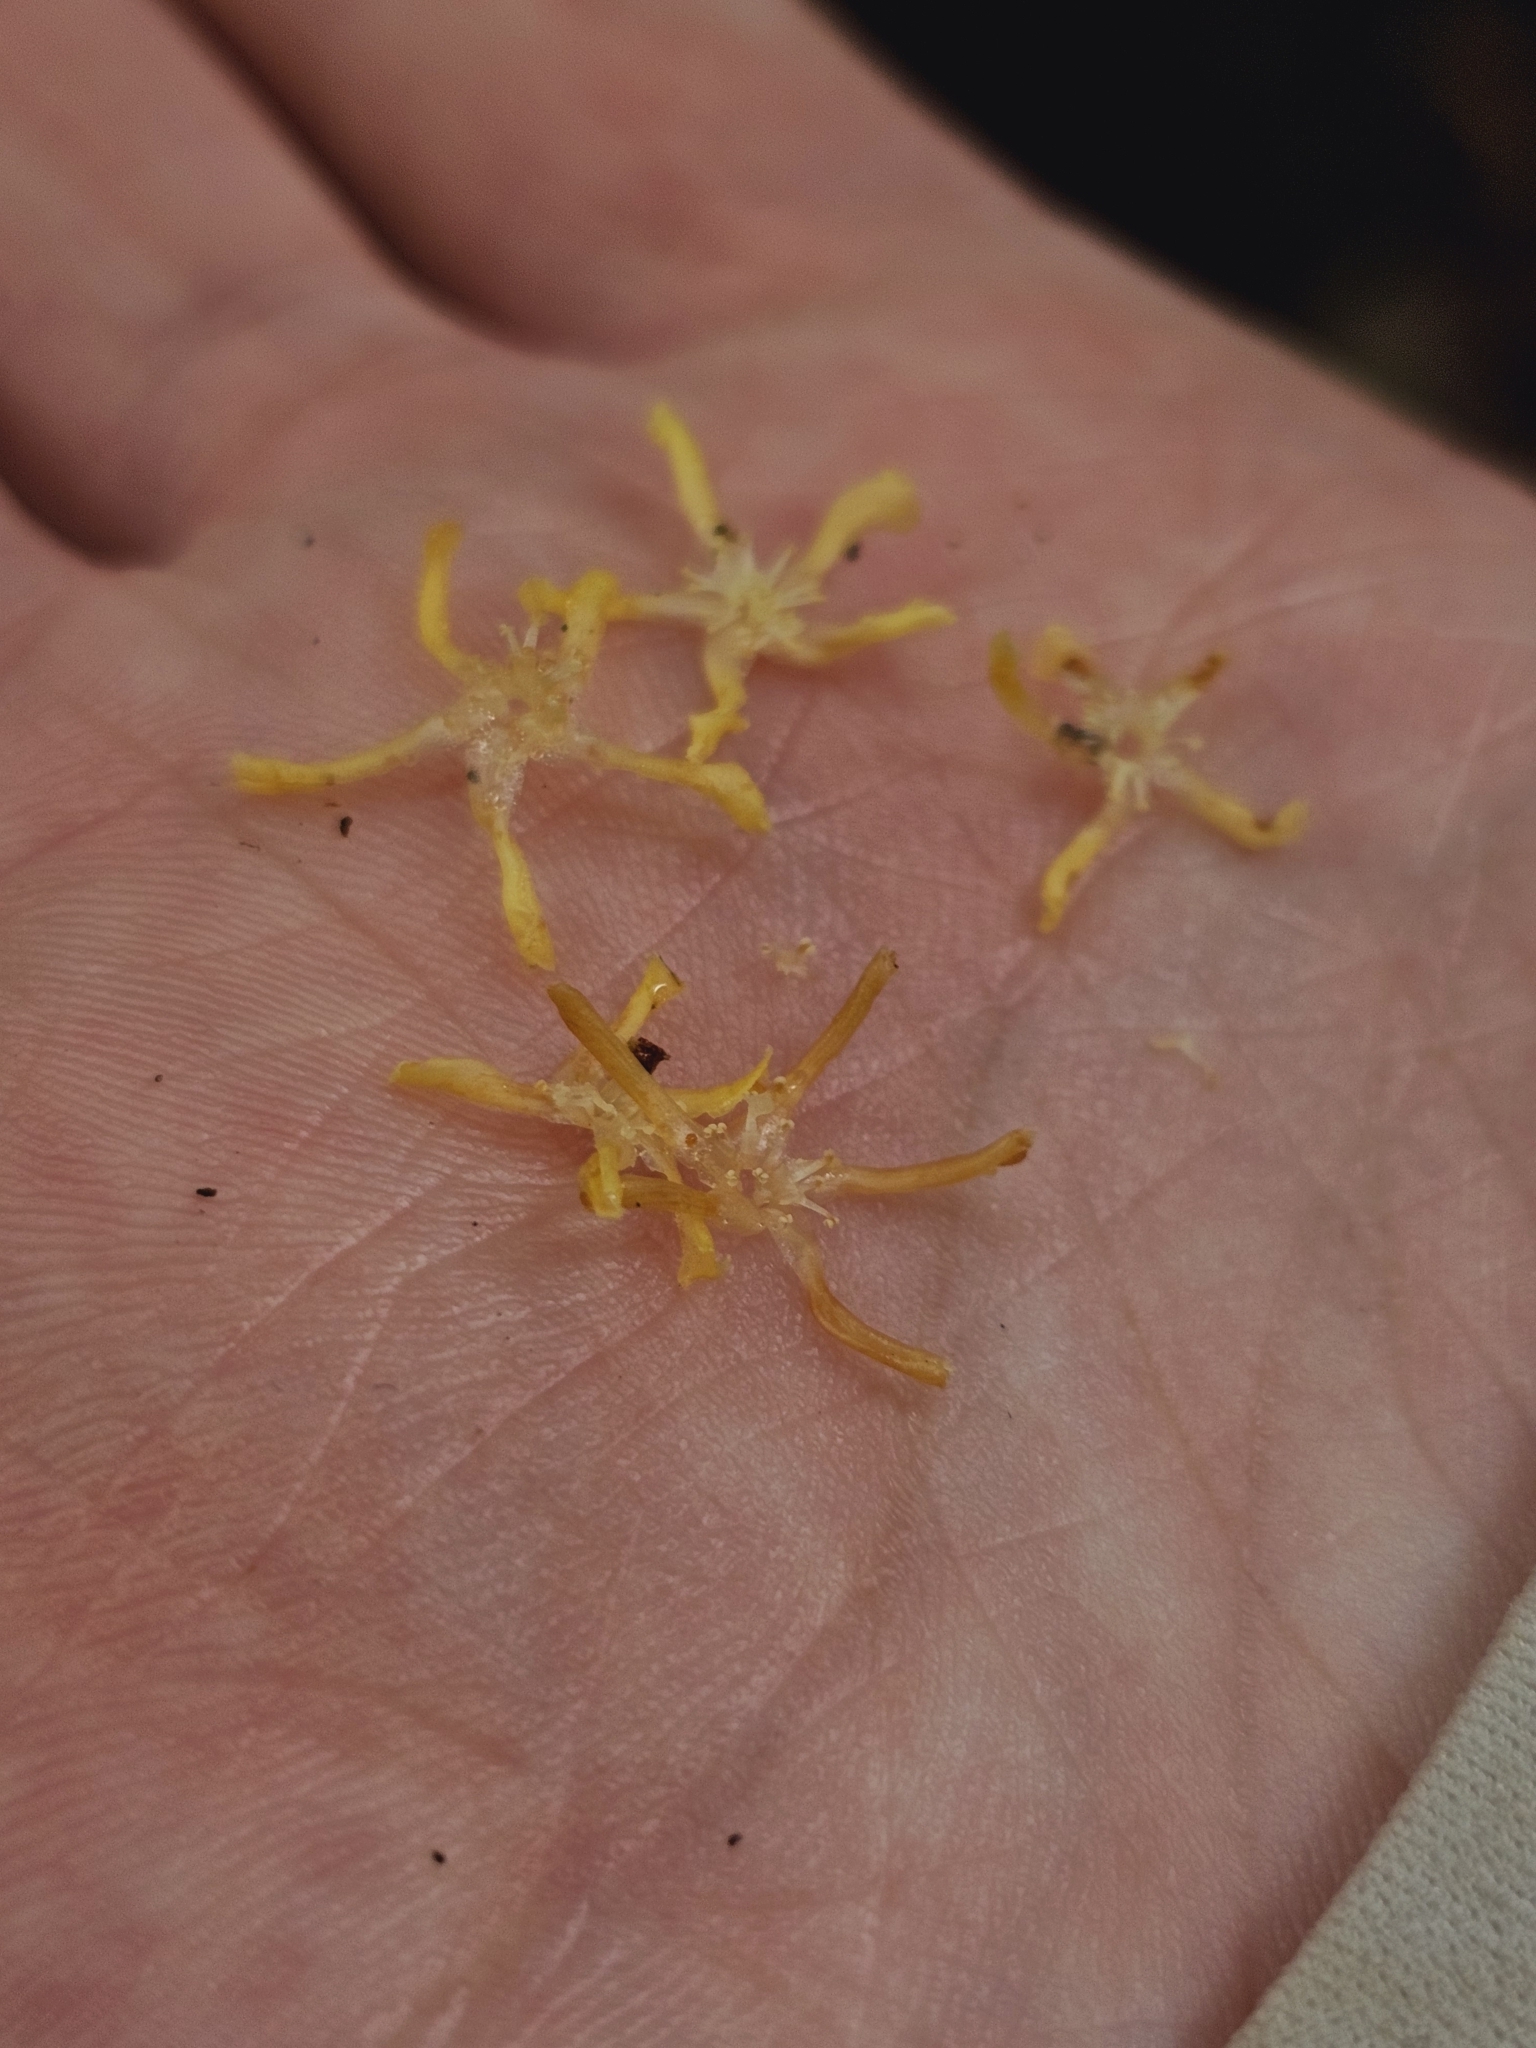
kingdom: Plantae
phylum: Tracheophyta
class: Magnoliopsida
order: Malvales
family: Dipterocarpaceae
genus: Shorea
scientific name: Shorea curtisii
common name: Dark red meranti
